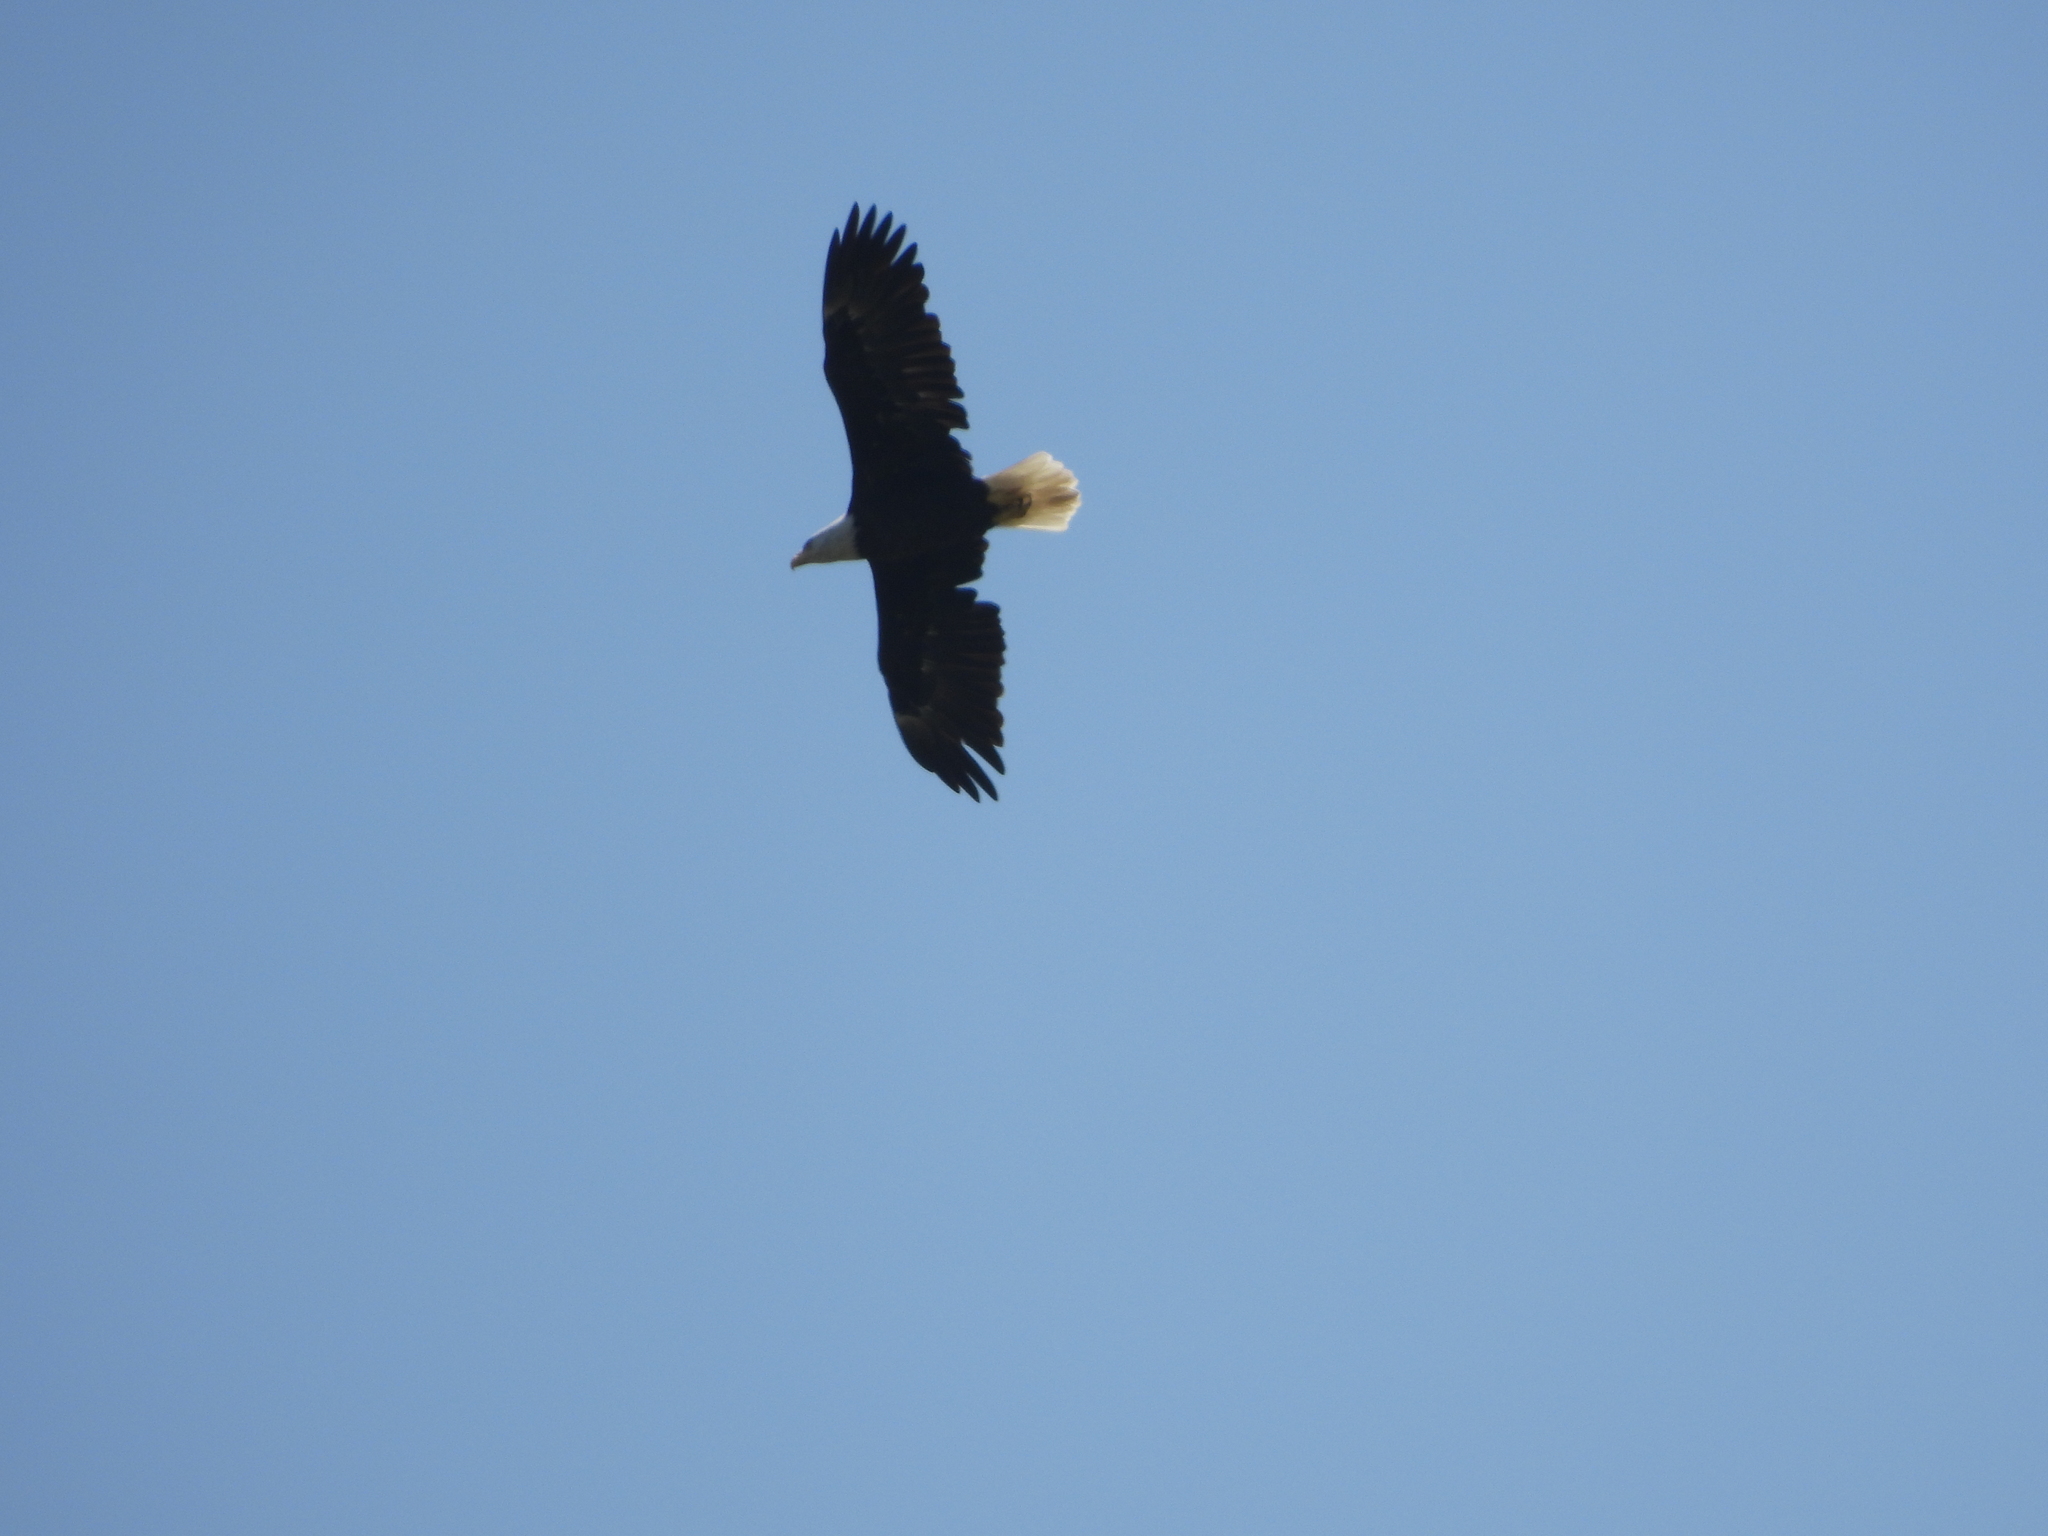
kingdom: Animalia
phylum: Chordata
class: Aves
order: Accipitriformes
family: Accipitridae
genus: Haliaeetus
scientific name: Haliaeetus leucocephalus
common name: Bald eagle
